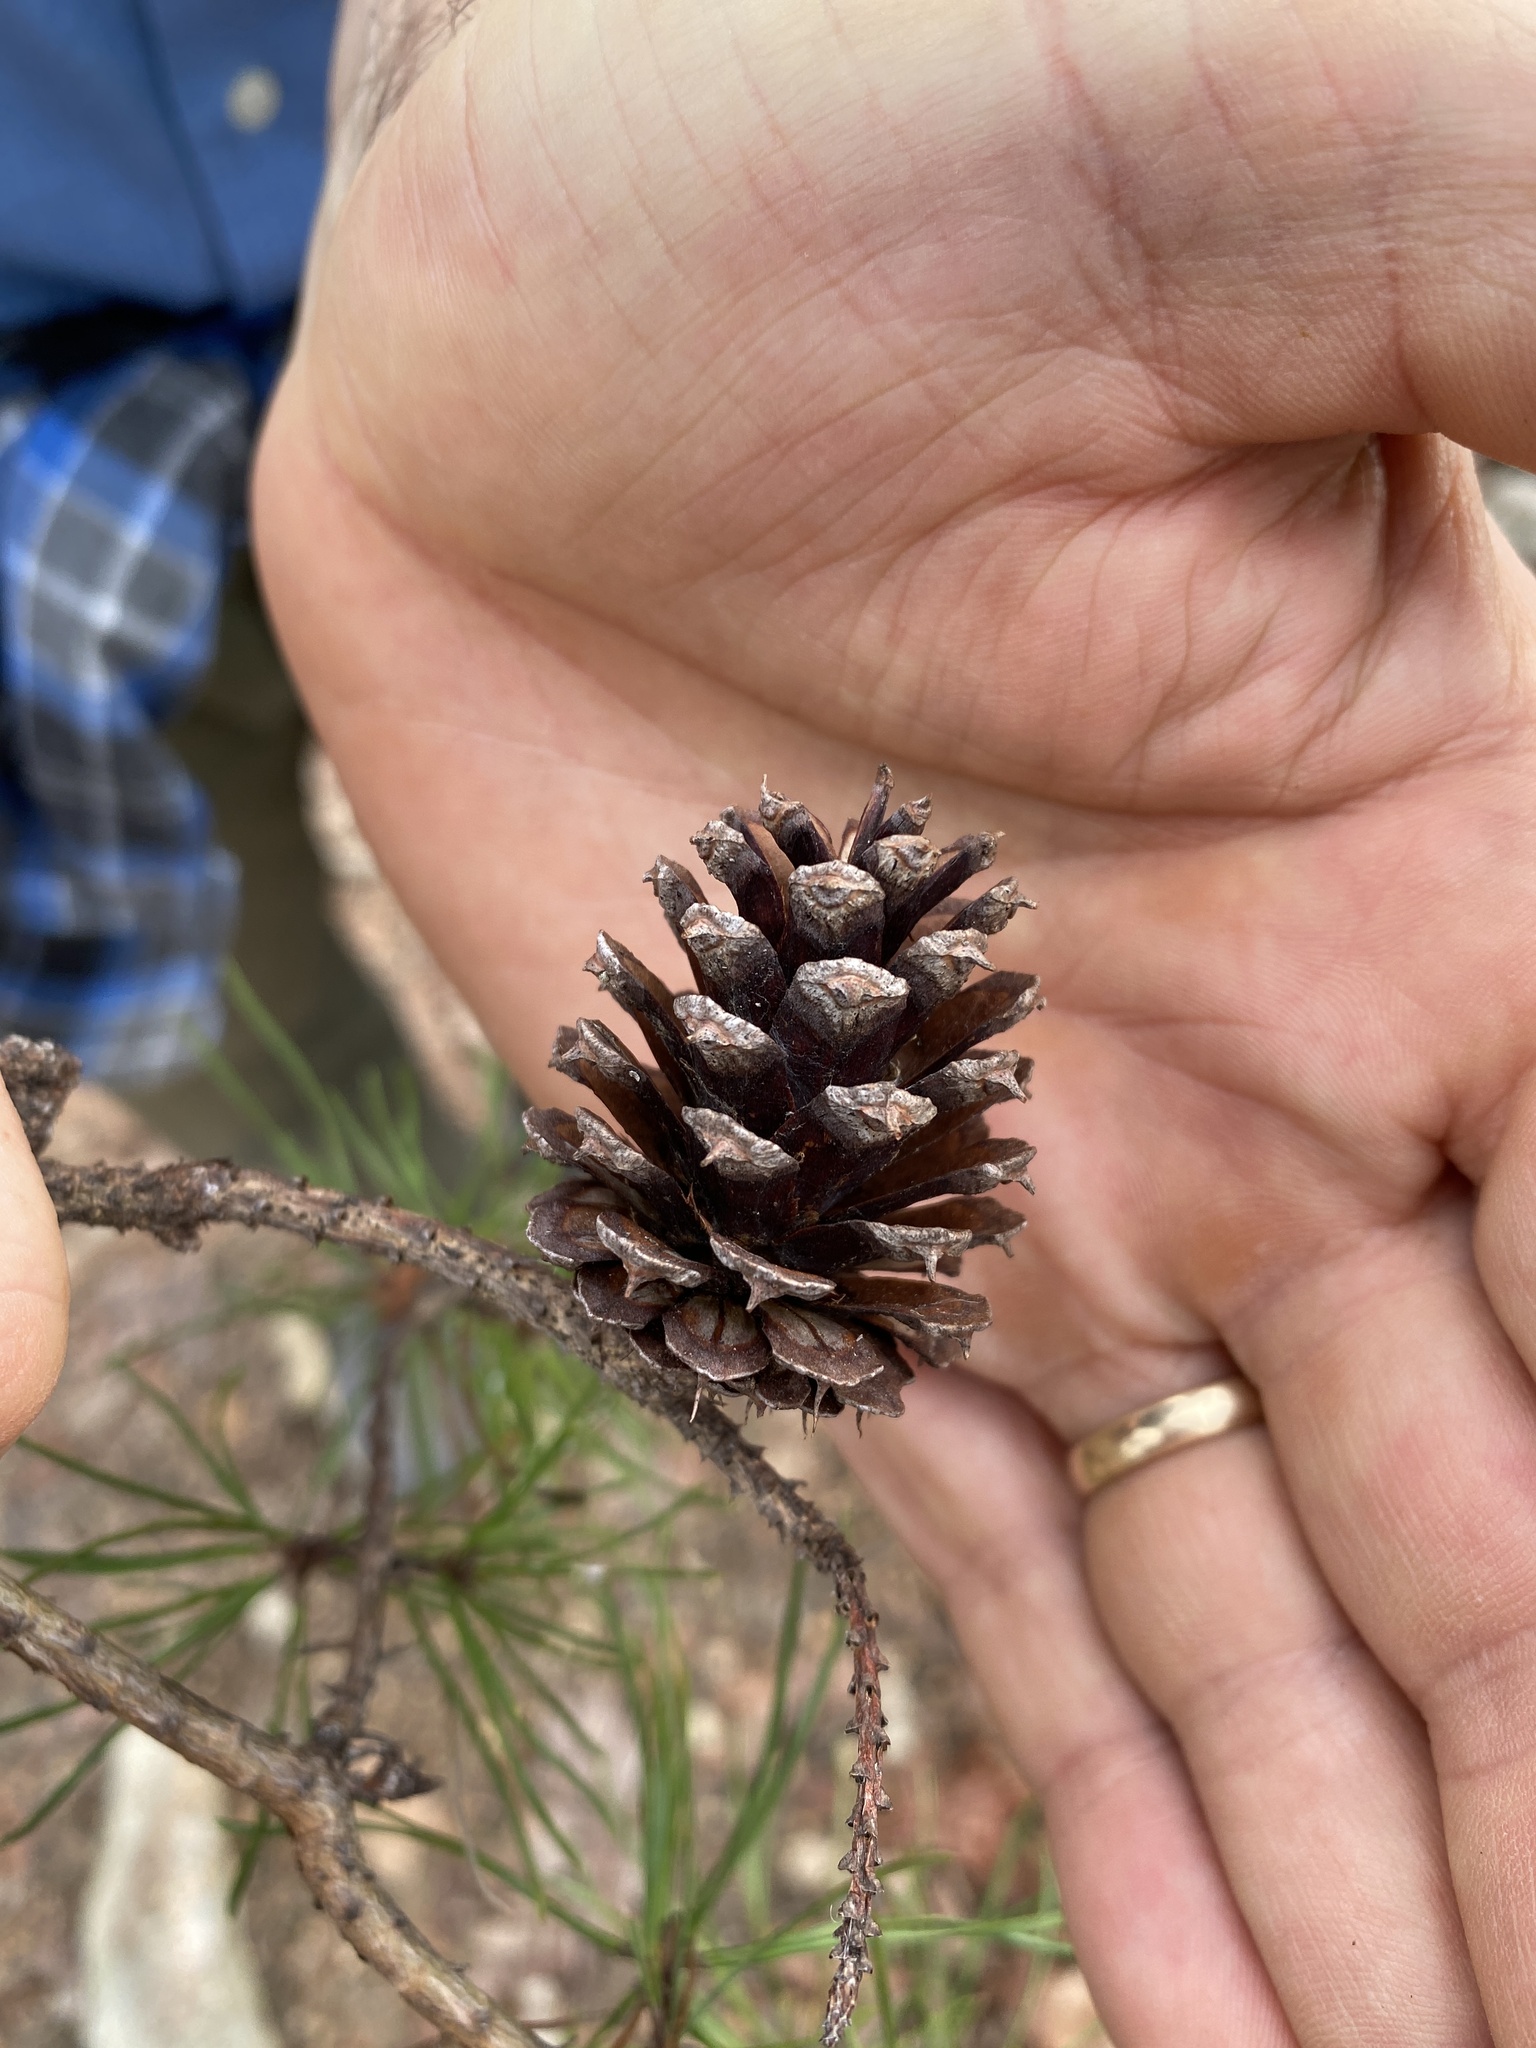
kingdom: Plantae
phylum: Tracheophyta
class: Pinopsida
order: Pinales
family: Pinaceae
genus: Pinus
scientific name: Pinus virginiana
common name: Scrub pine
